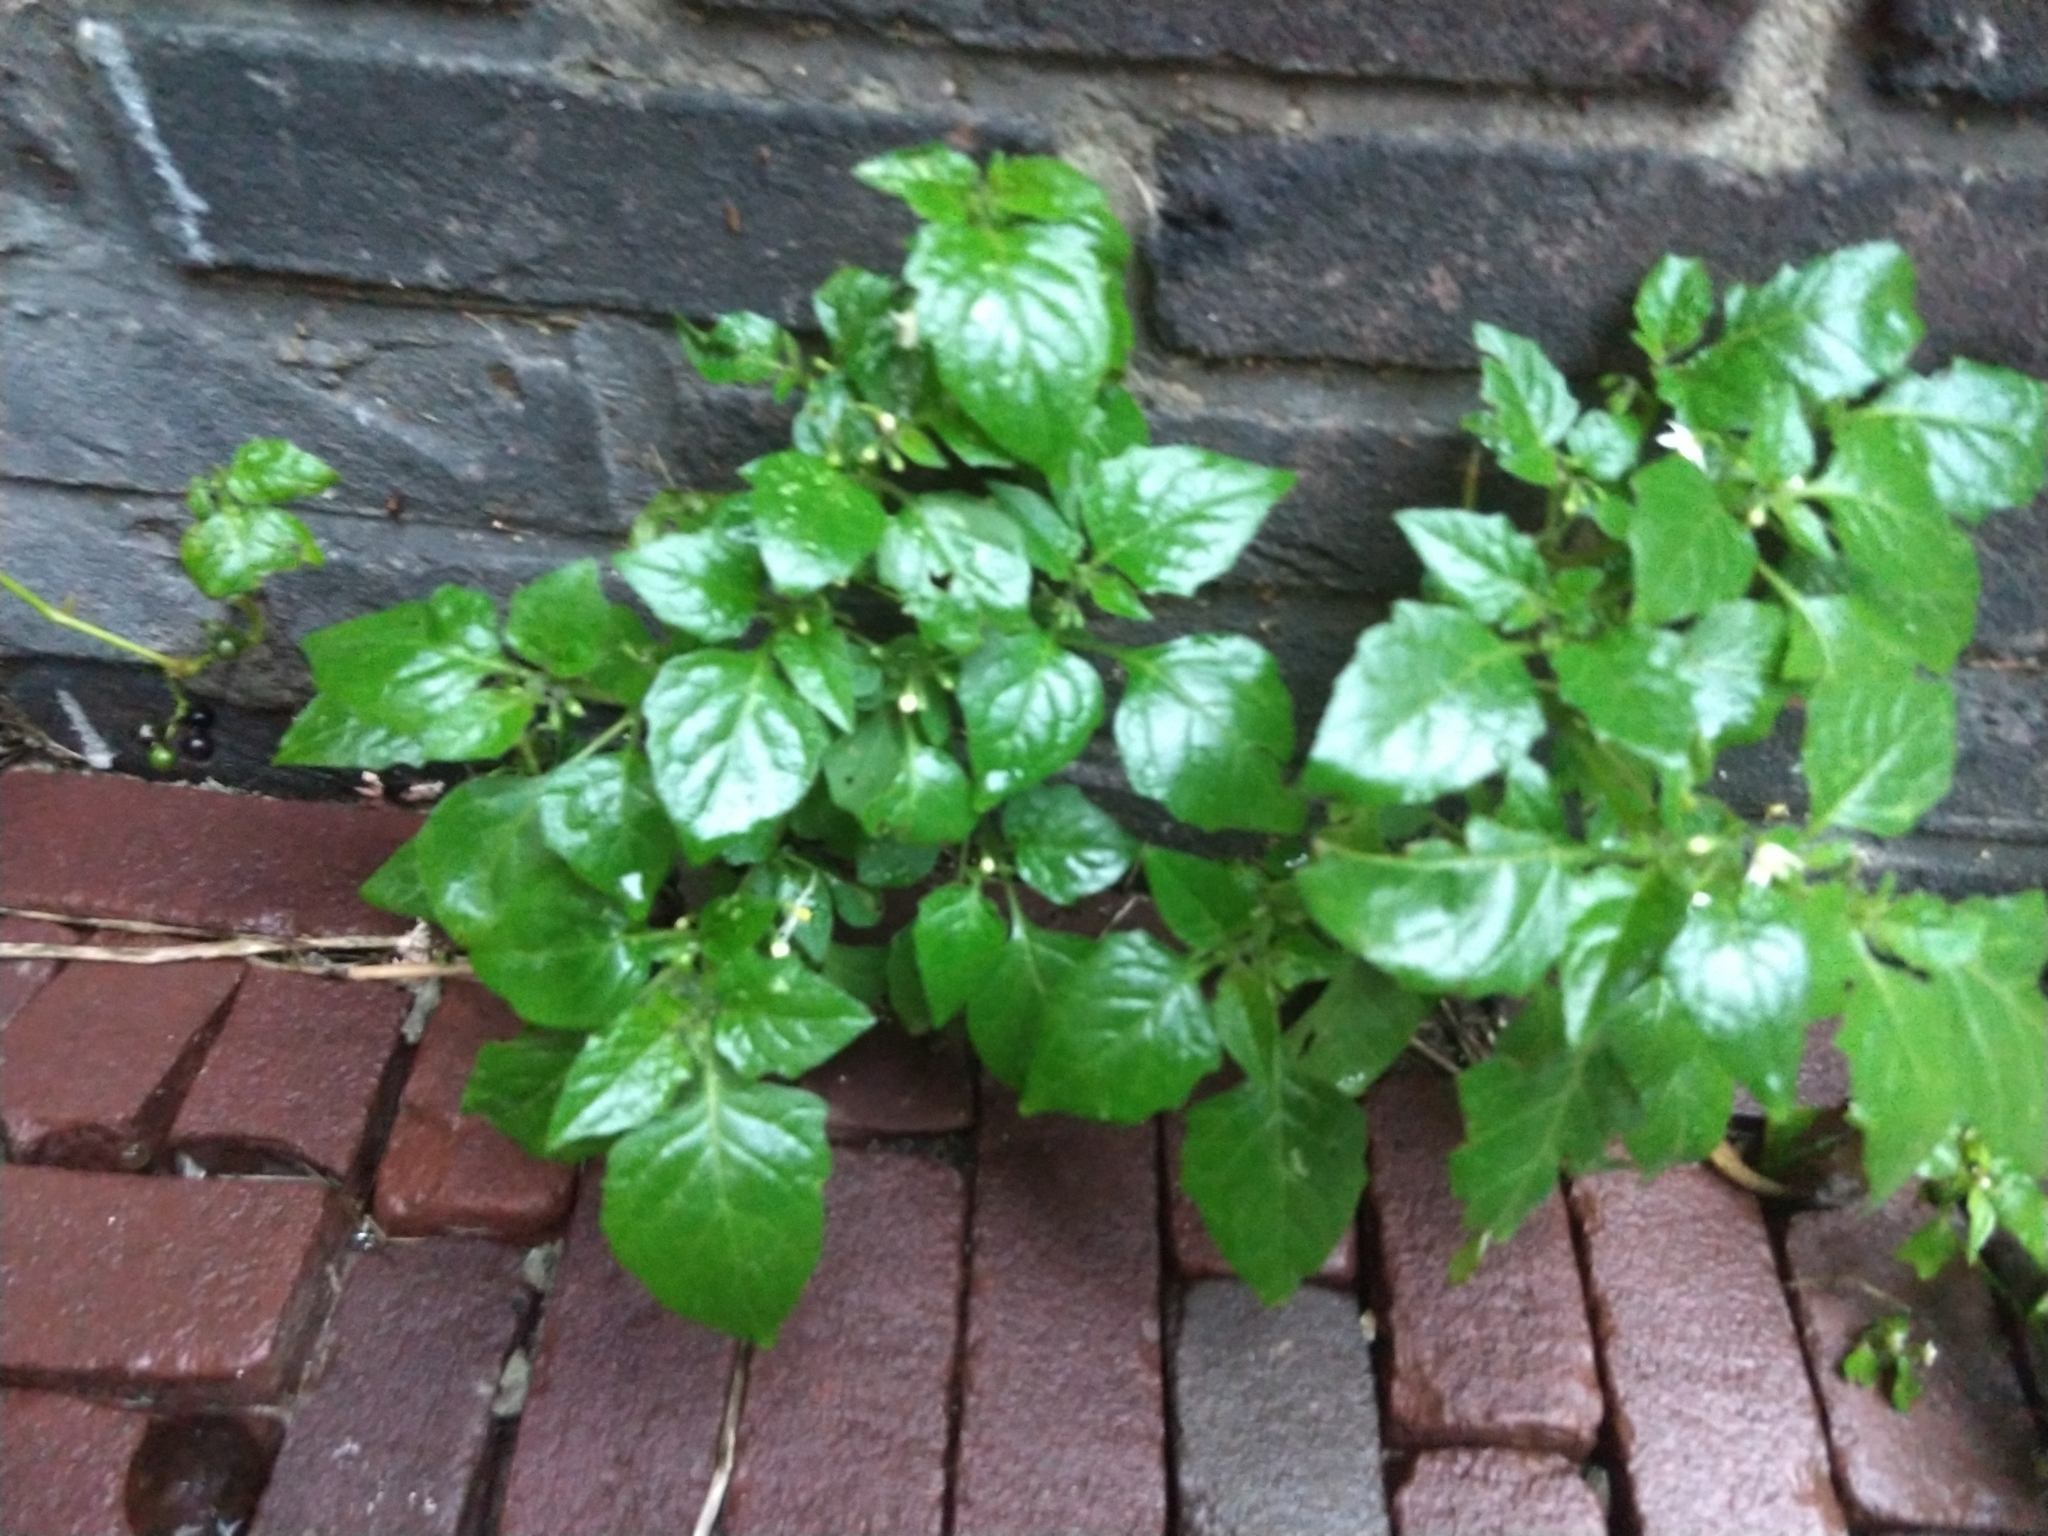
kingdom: Plantae
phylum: Tracheophyta
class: Magnoliopsida
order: Solanales
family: Solanaceae
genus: Solanum
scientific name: Solanum nigrum
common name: Black nightshade
